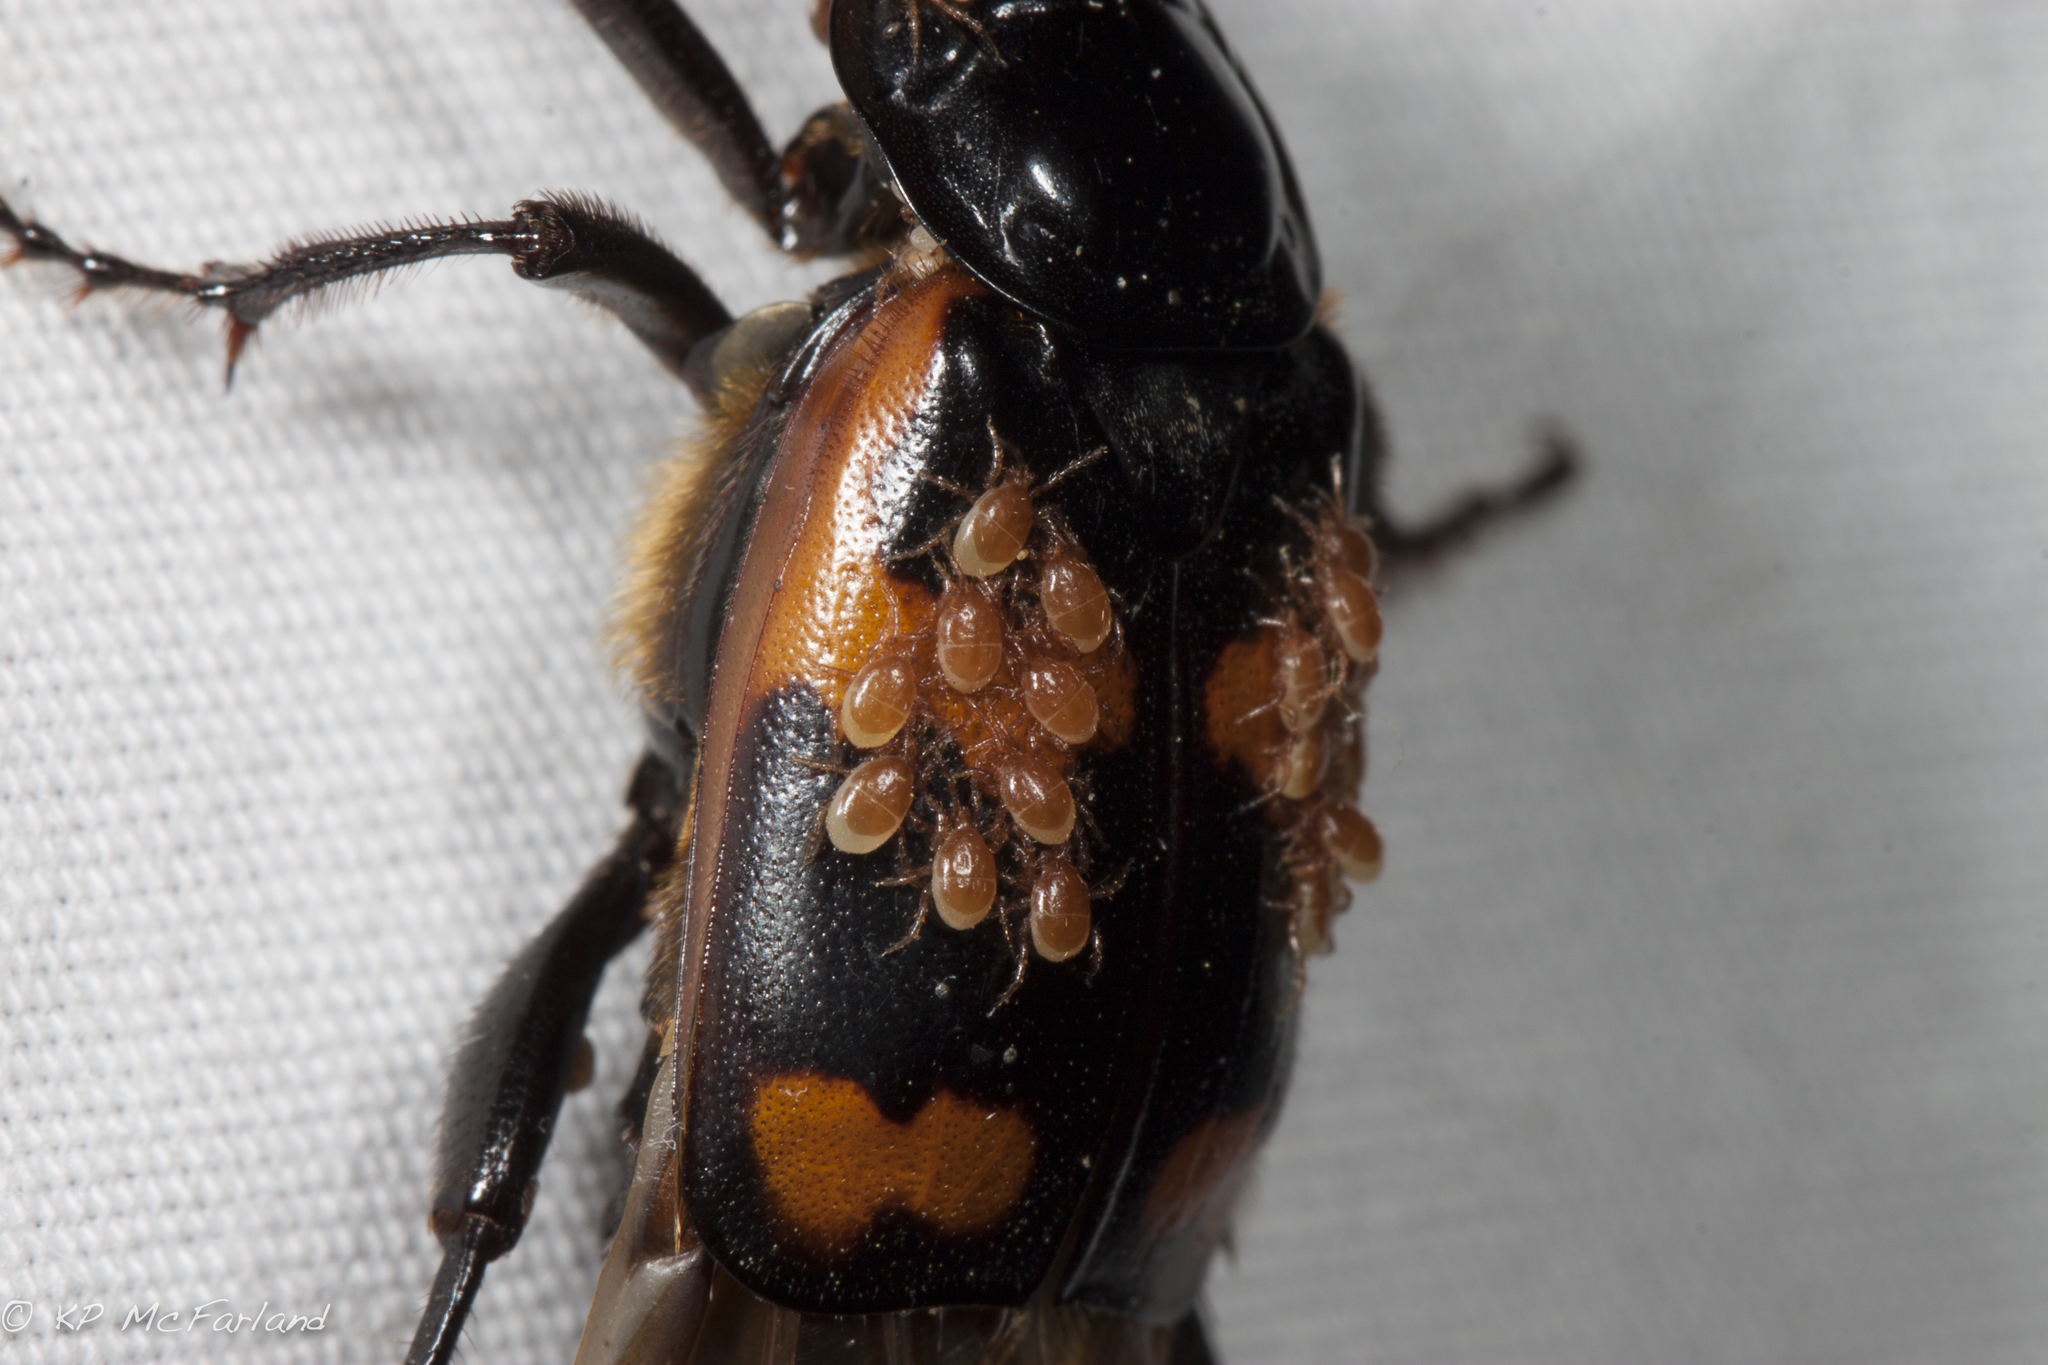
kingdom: Animalia
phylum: Arthropoda
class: Arachnida
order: Mesostigmata
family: Parasitidae
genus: Poecilochirus
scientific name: Poecilochirus
